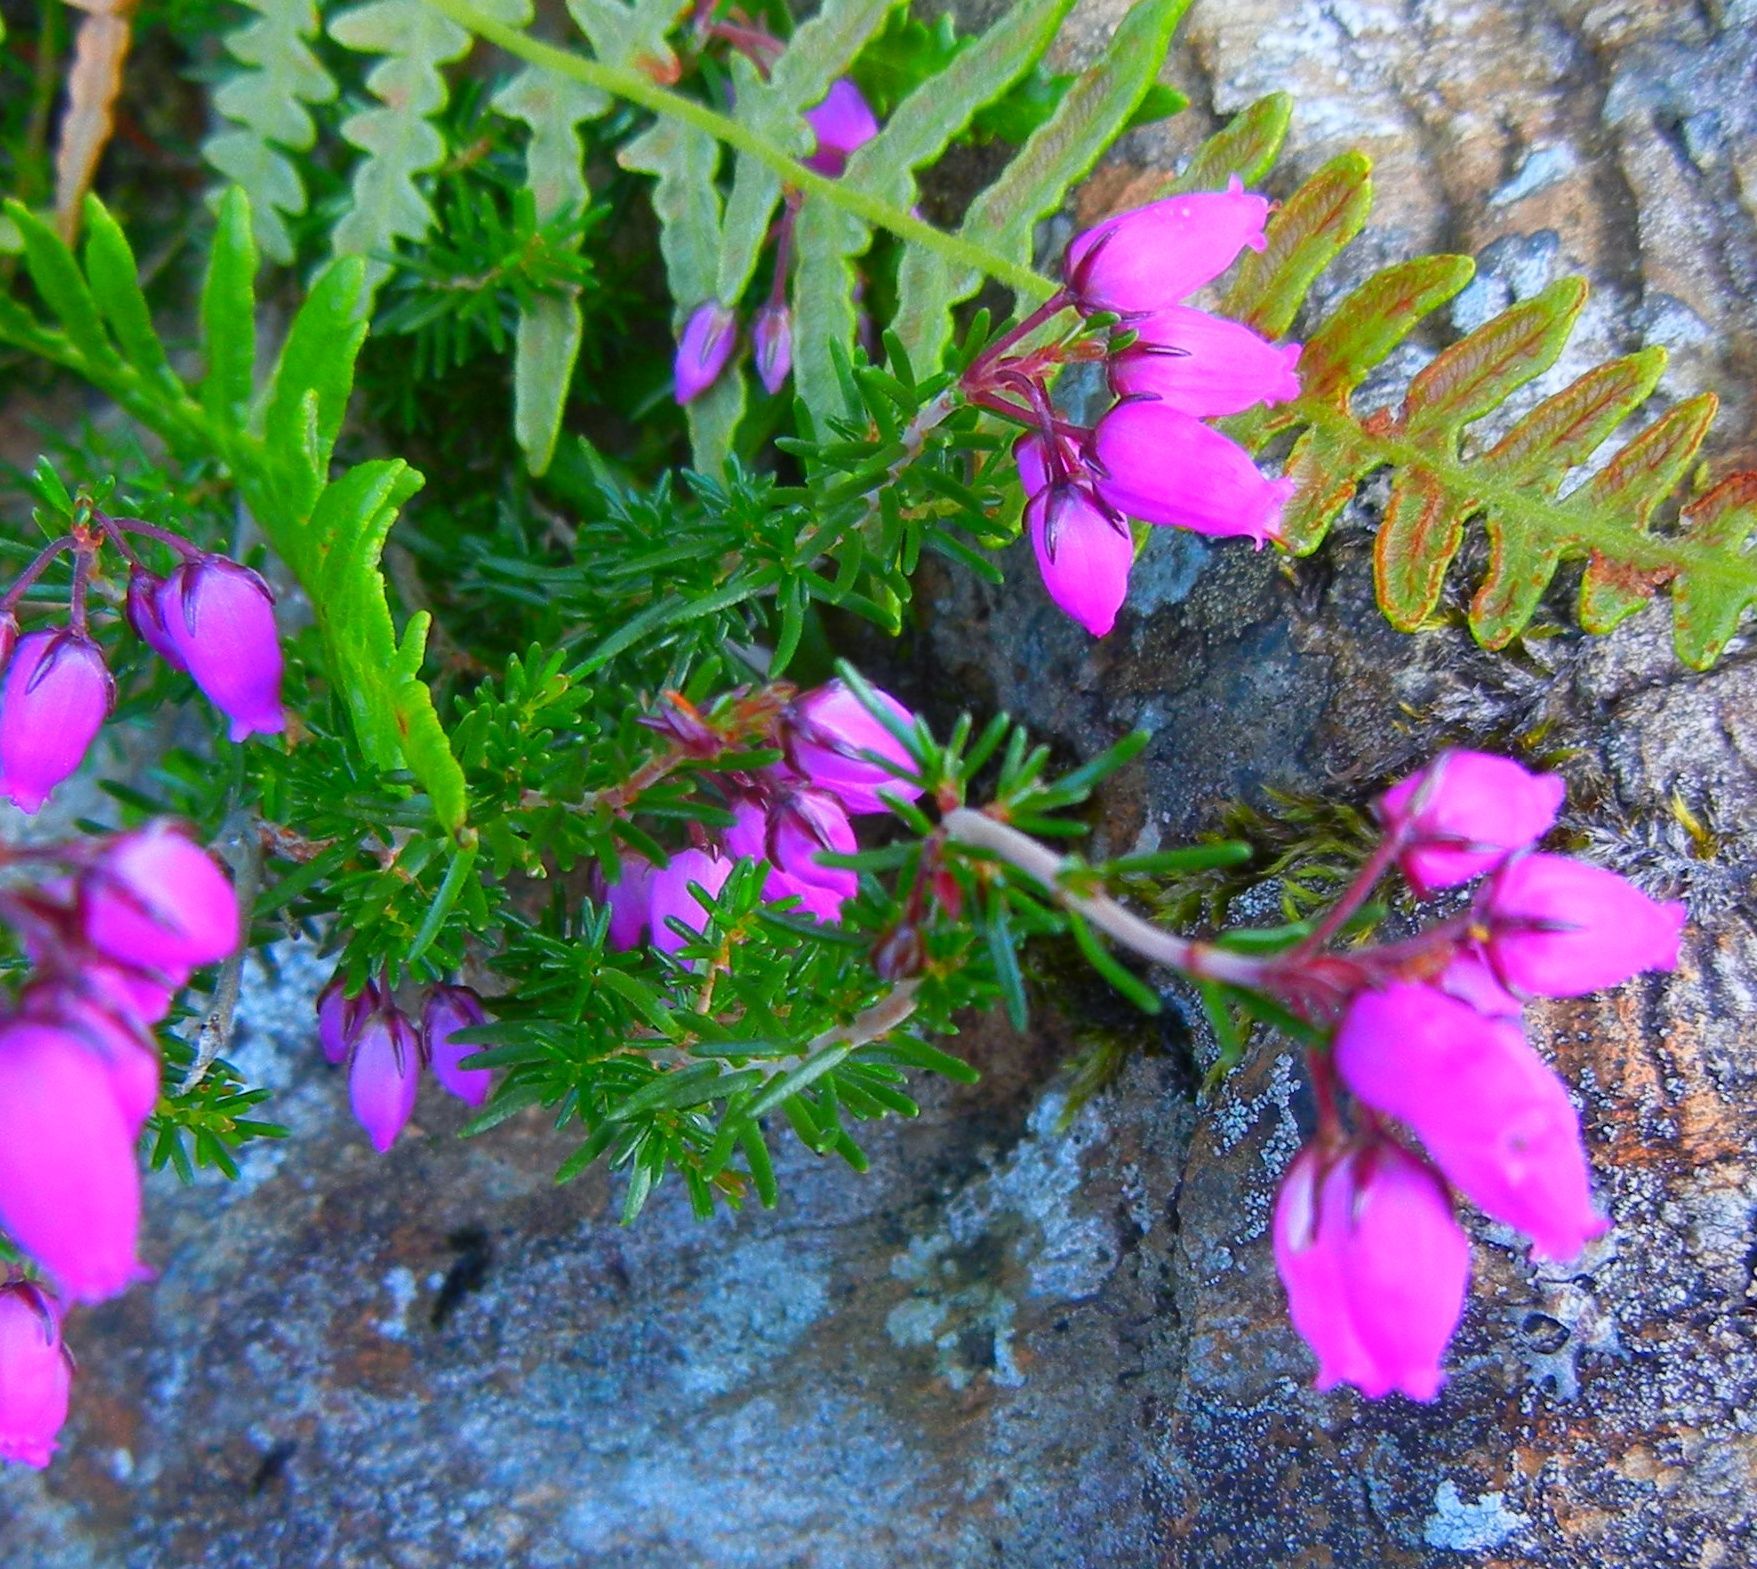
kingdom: Plantae
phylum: Tracheophyta
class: Magnoliopsida
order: Ericales
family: Ericaceae
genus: Erica
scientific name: Erica cinerea
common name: Bell heather
